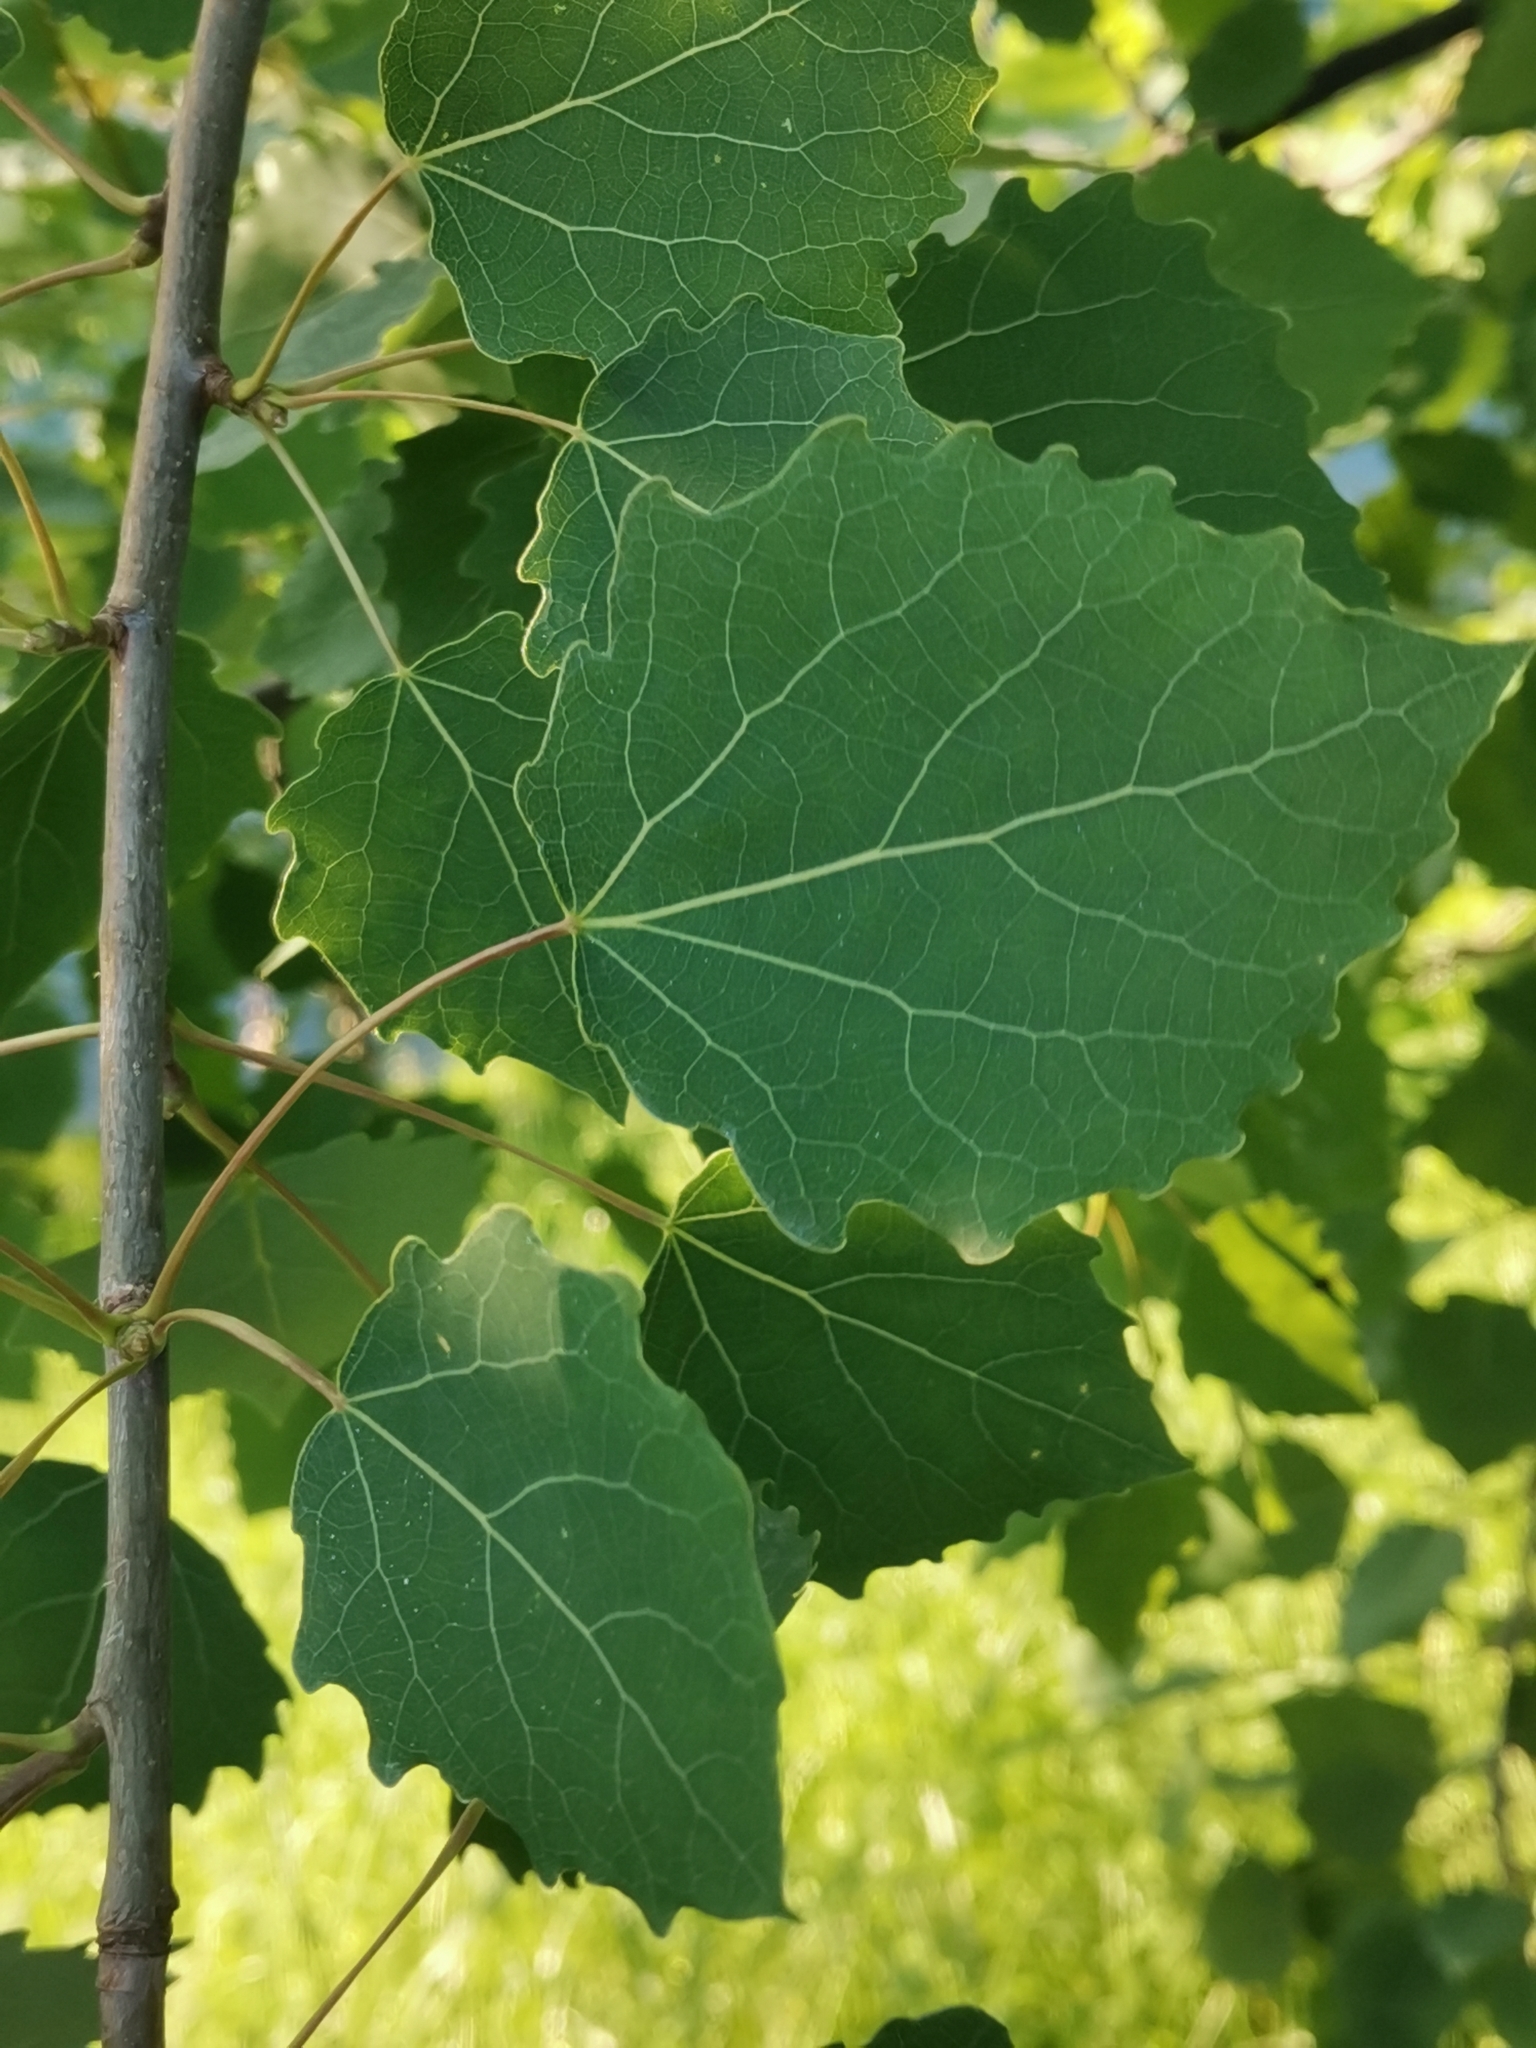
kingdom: Plantae
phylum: Tracheophyta
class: Magnoliopsida
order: Malpighiales
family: Salicaceae
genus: Populus
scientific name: Populus tremula
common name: European aspen
